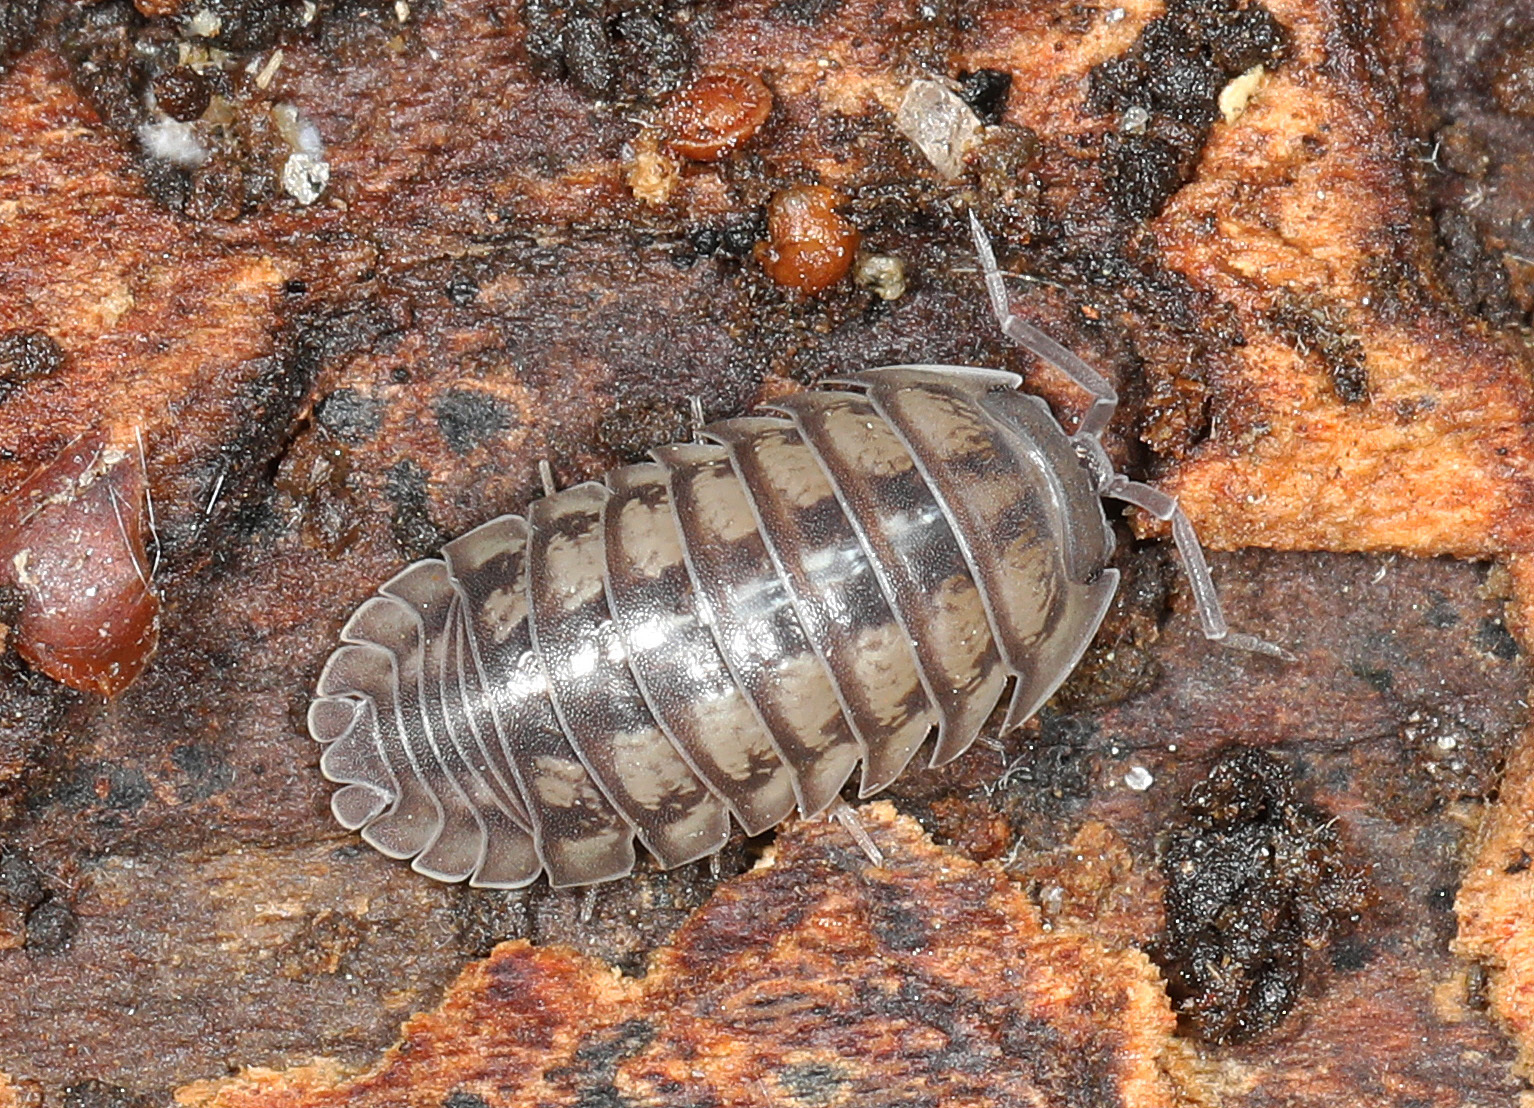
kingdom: Animalia
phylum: Arthropoda
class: Malacostraca
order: Isopoda
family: Armadillidiidae
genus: Armadillidium
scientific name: Armadillidium nasatum
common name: Isopod
